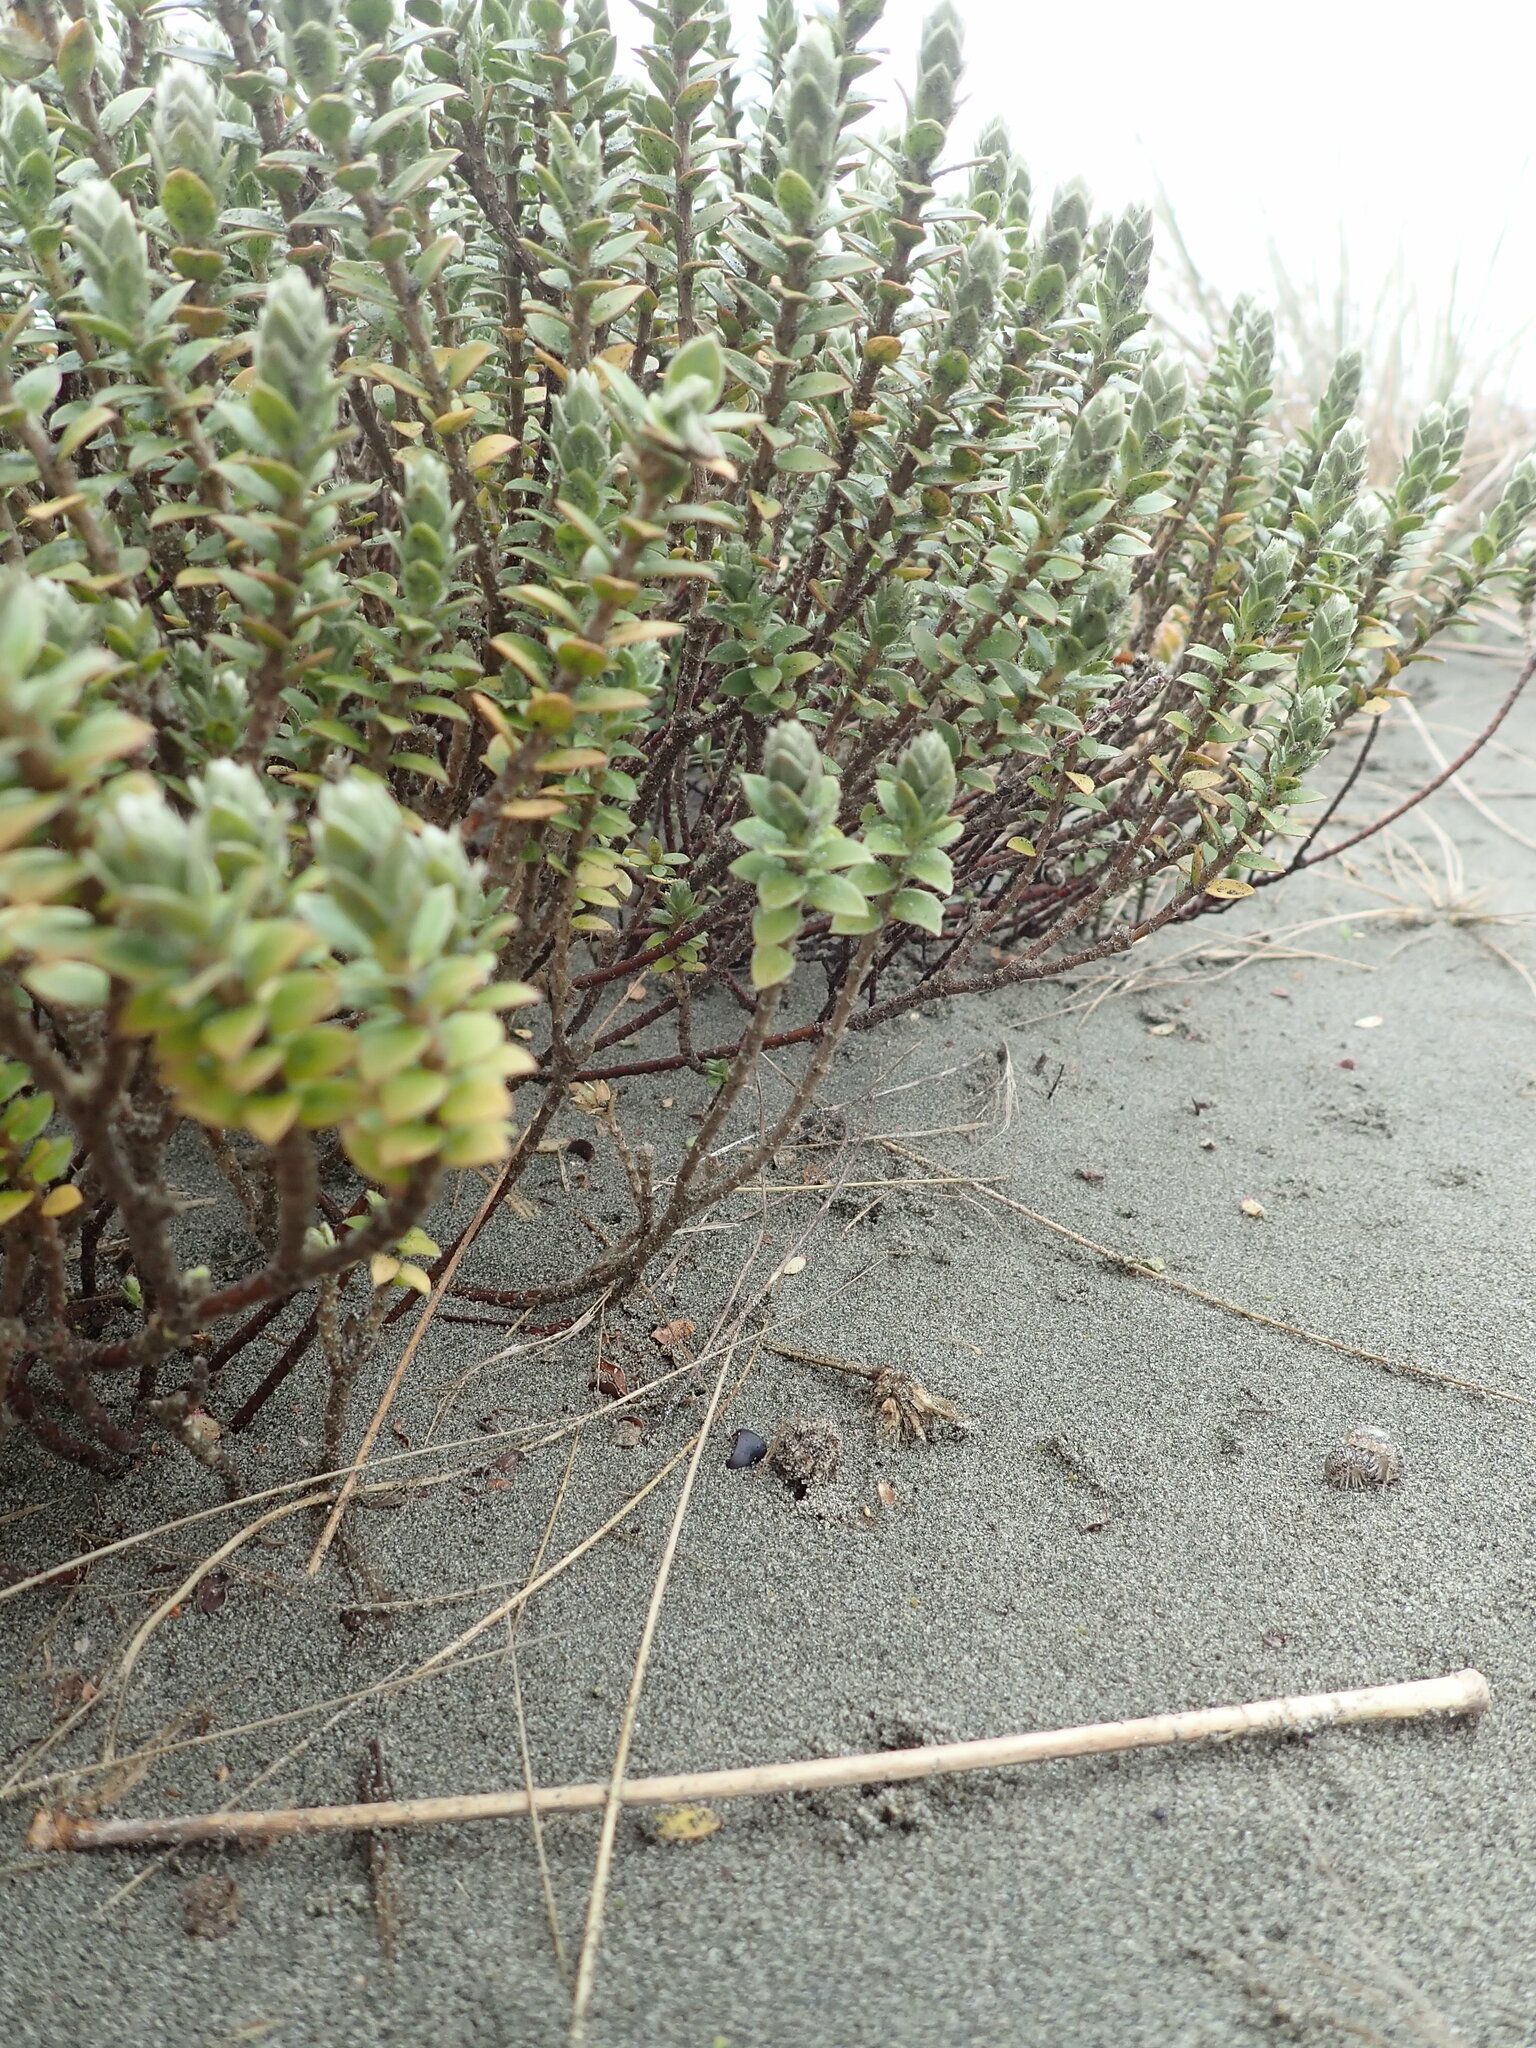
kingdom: Plantae
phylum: Tracheophyta
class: Magnoliopsida
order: Malvales
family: Thymelaeaceae
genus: Pimelea
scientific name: Pimelea villosa
